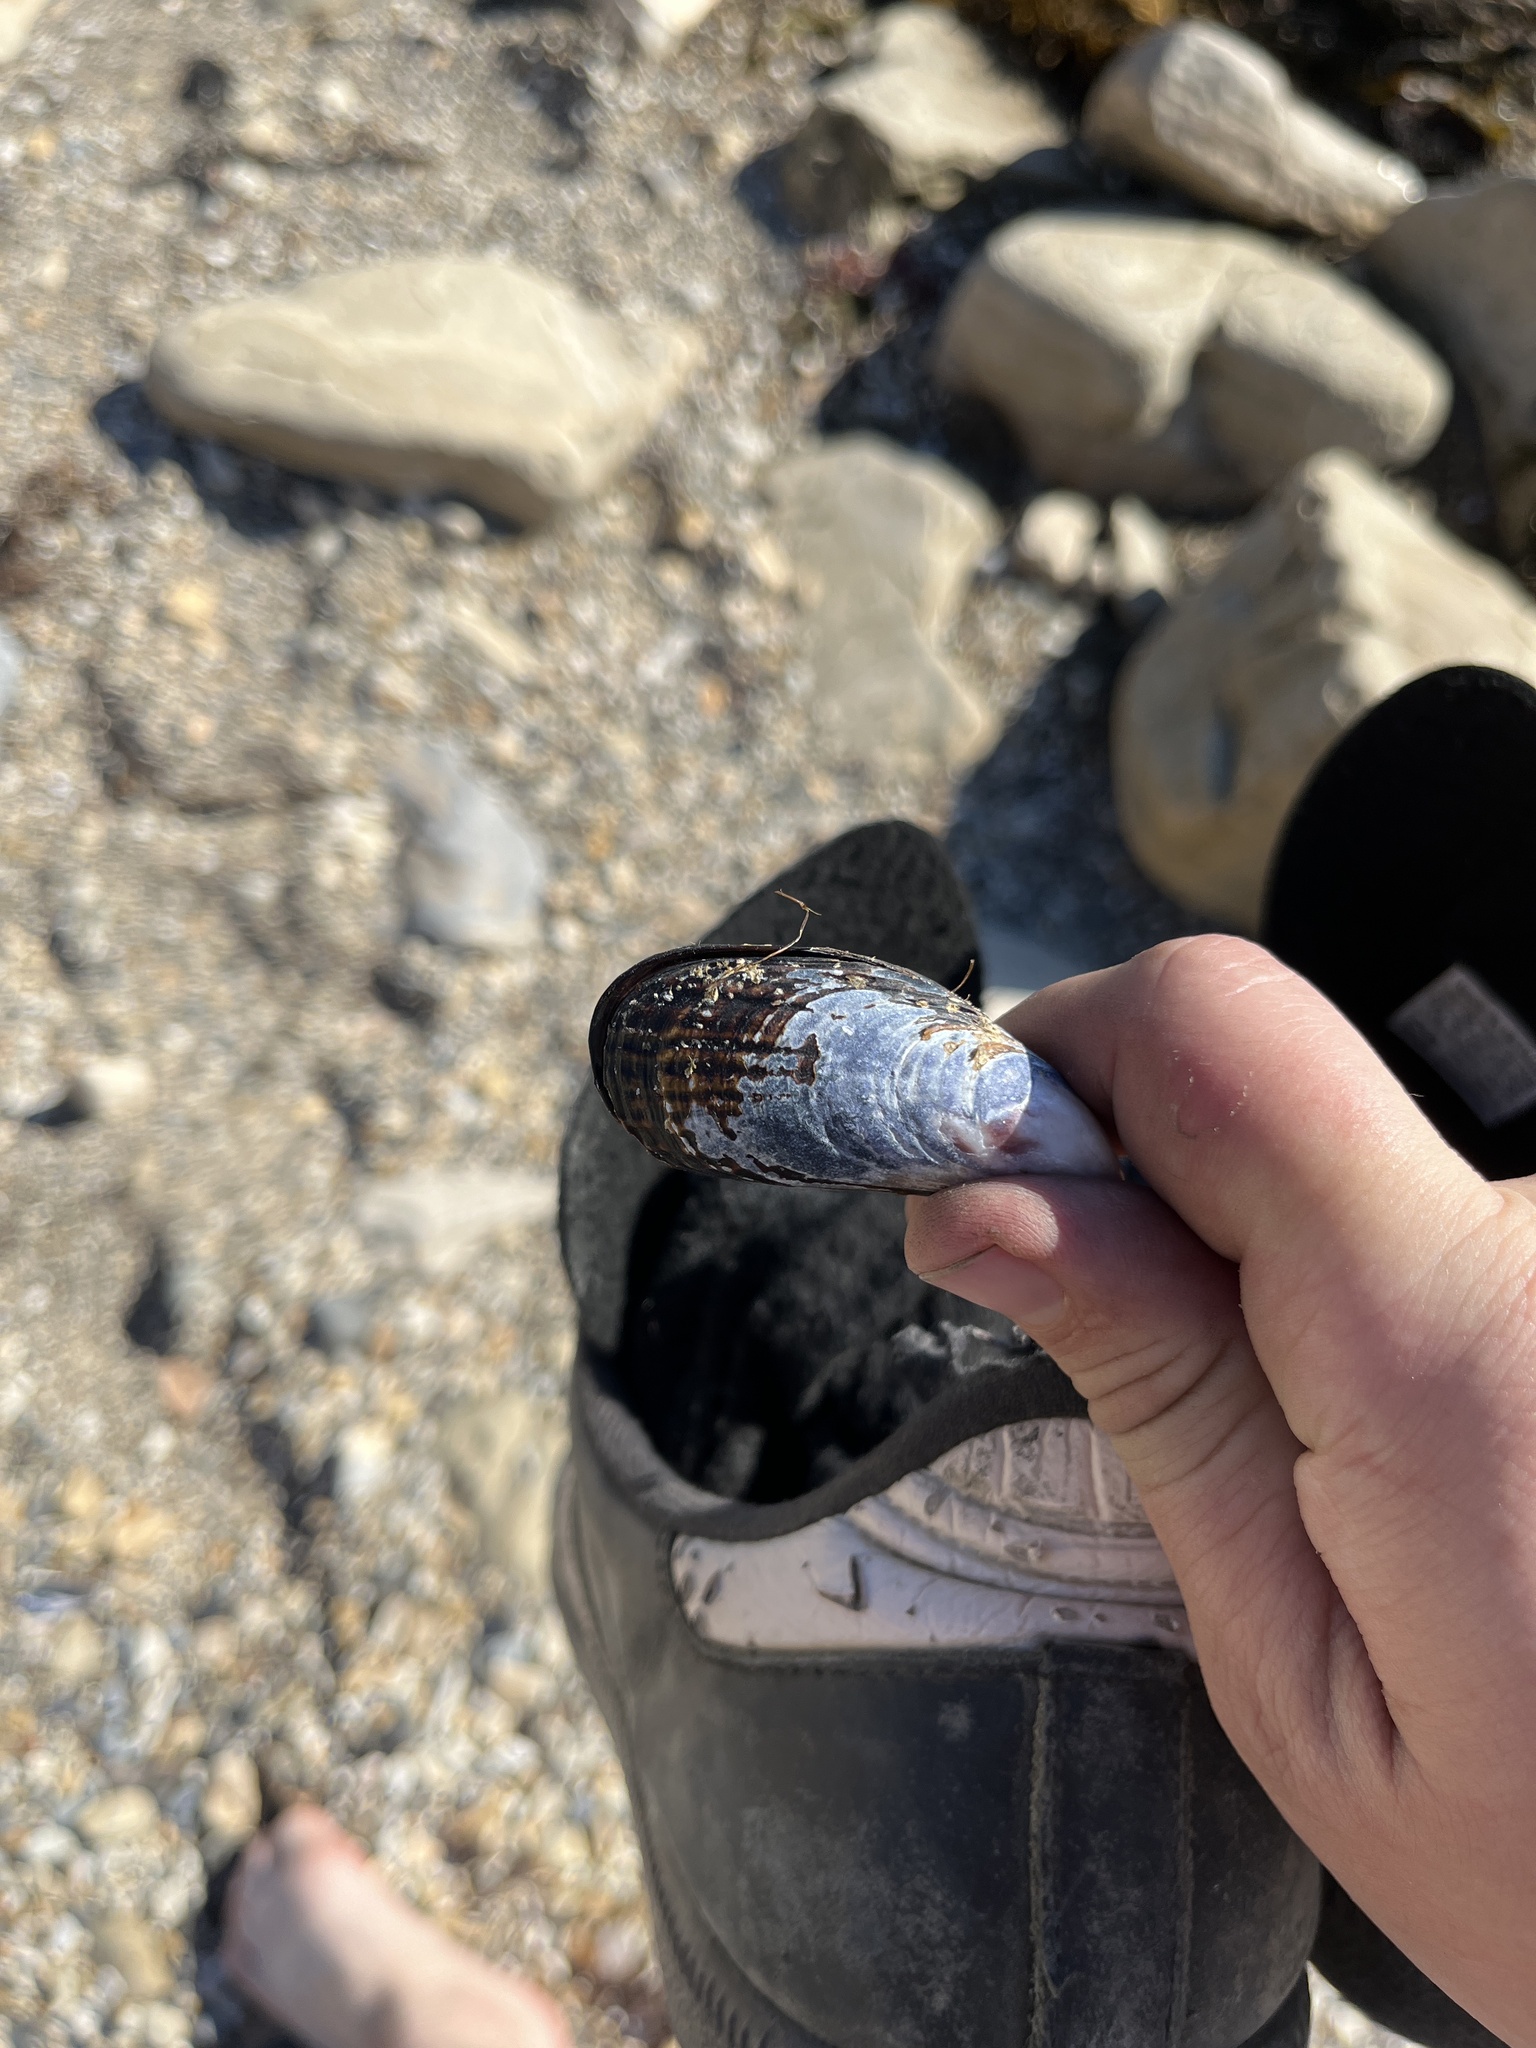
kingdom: Animalia
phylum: Mollusca
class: Bivalvia
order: Mytilida
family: Mytilidae
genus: Mytilus
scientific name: Mytilus californianus
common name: California mussel
